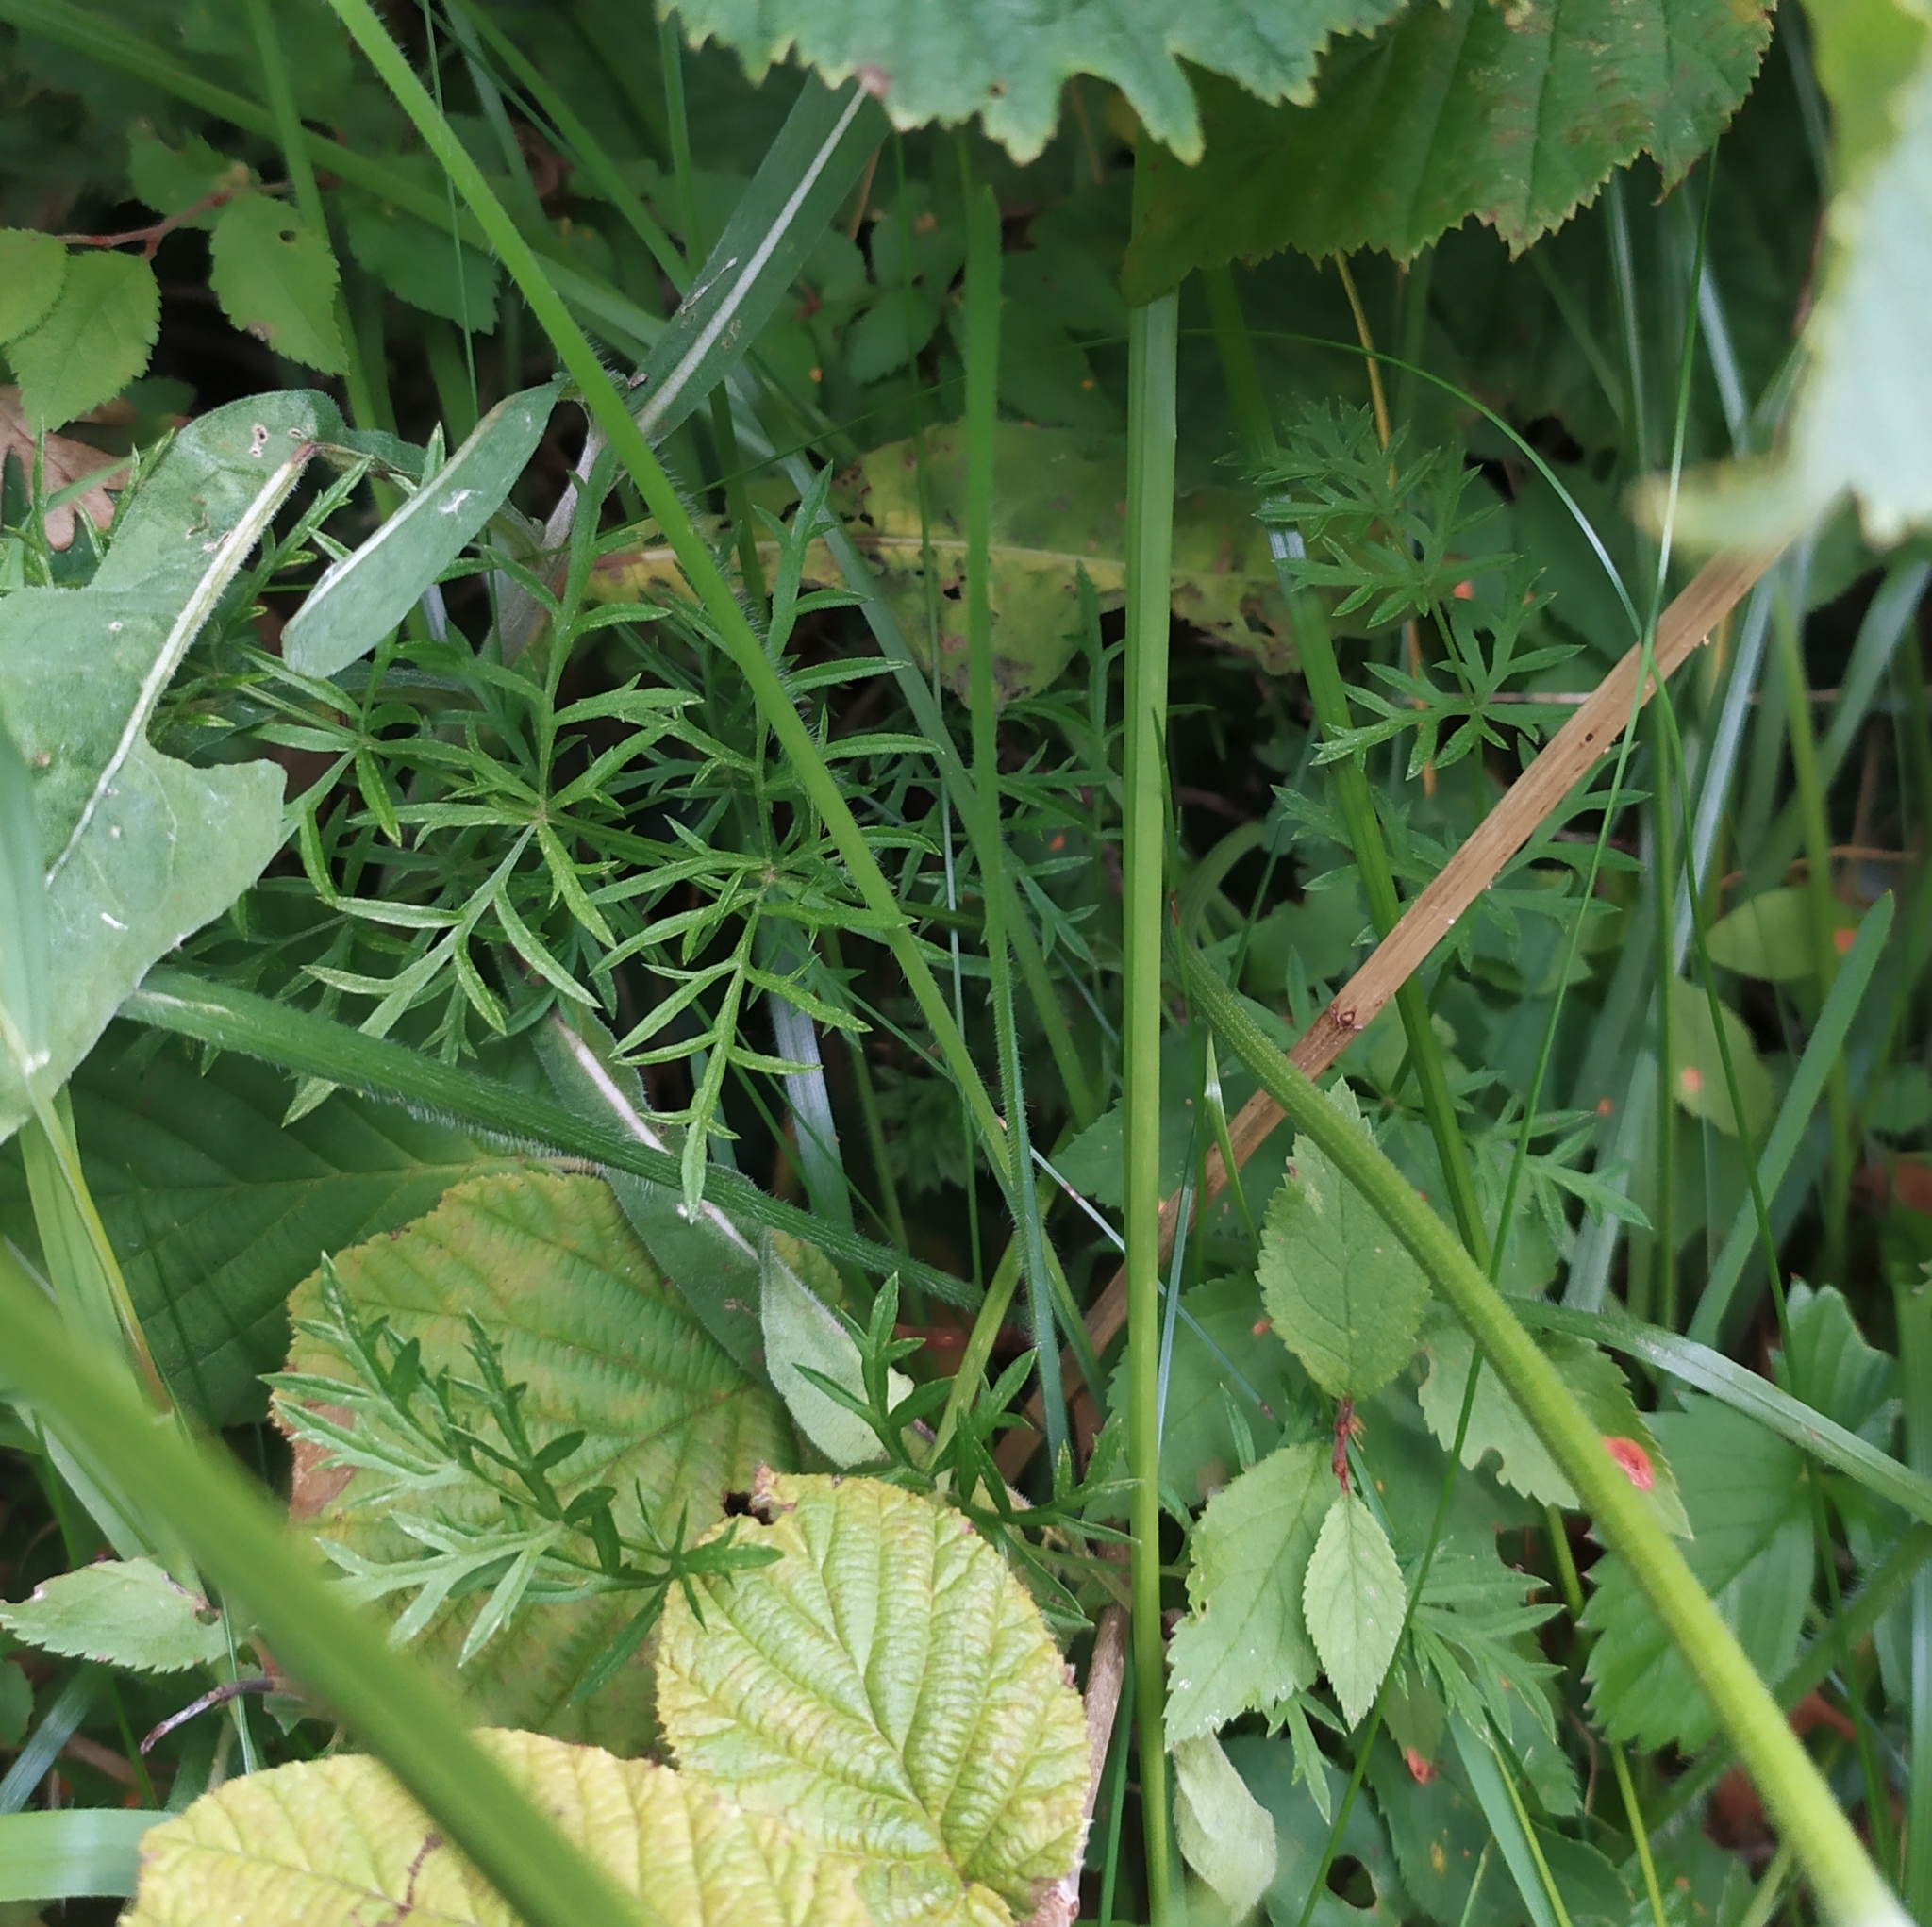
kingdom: Plantae
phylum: Tracheophyta
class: Magnoliopsida
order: Apiales
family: Apiaceae
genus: Conopodium
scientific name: Conopodium majus
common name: Pignut
